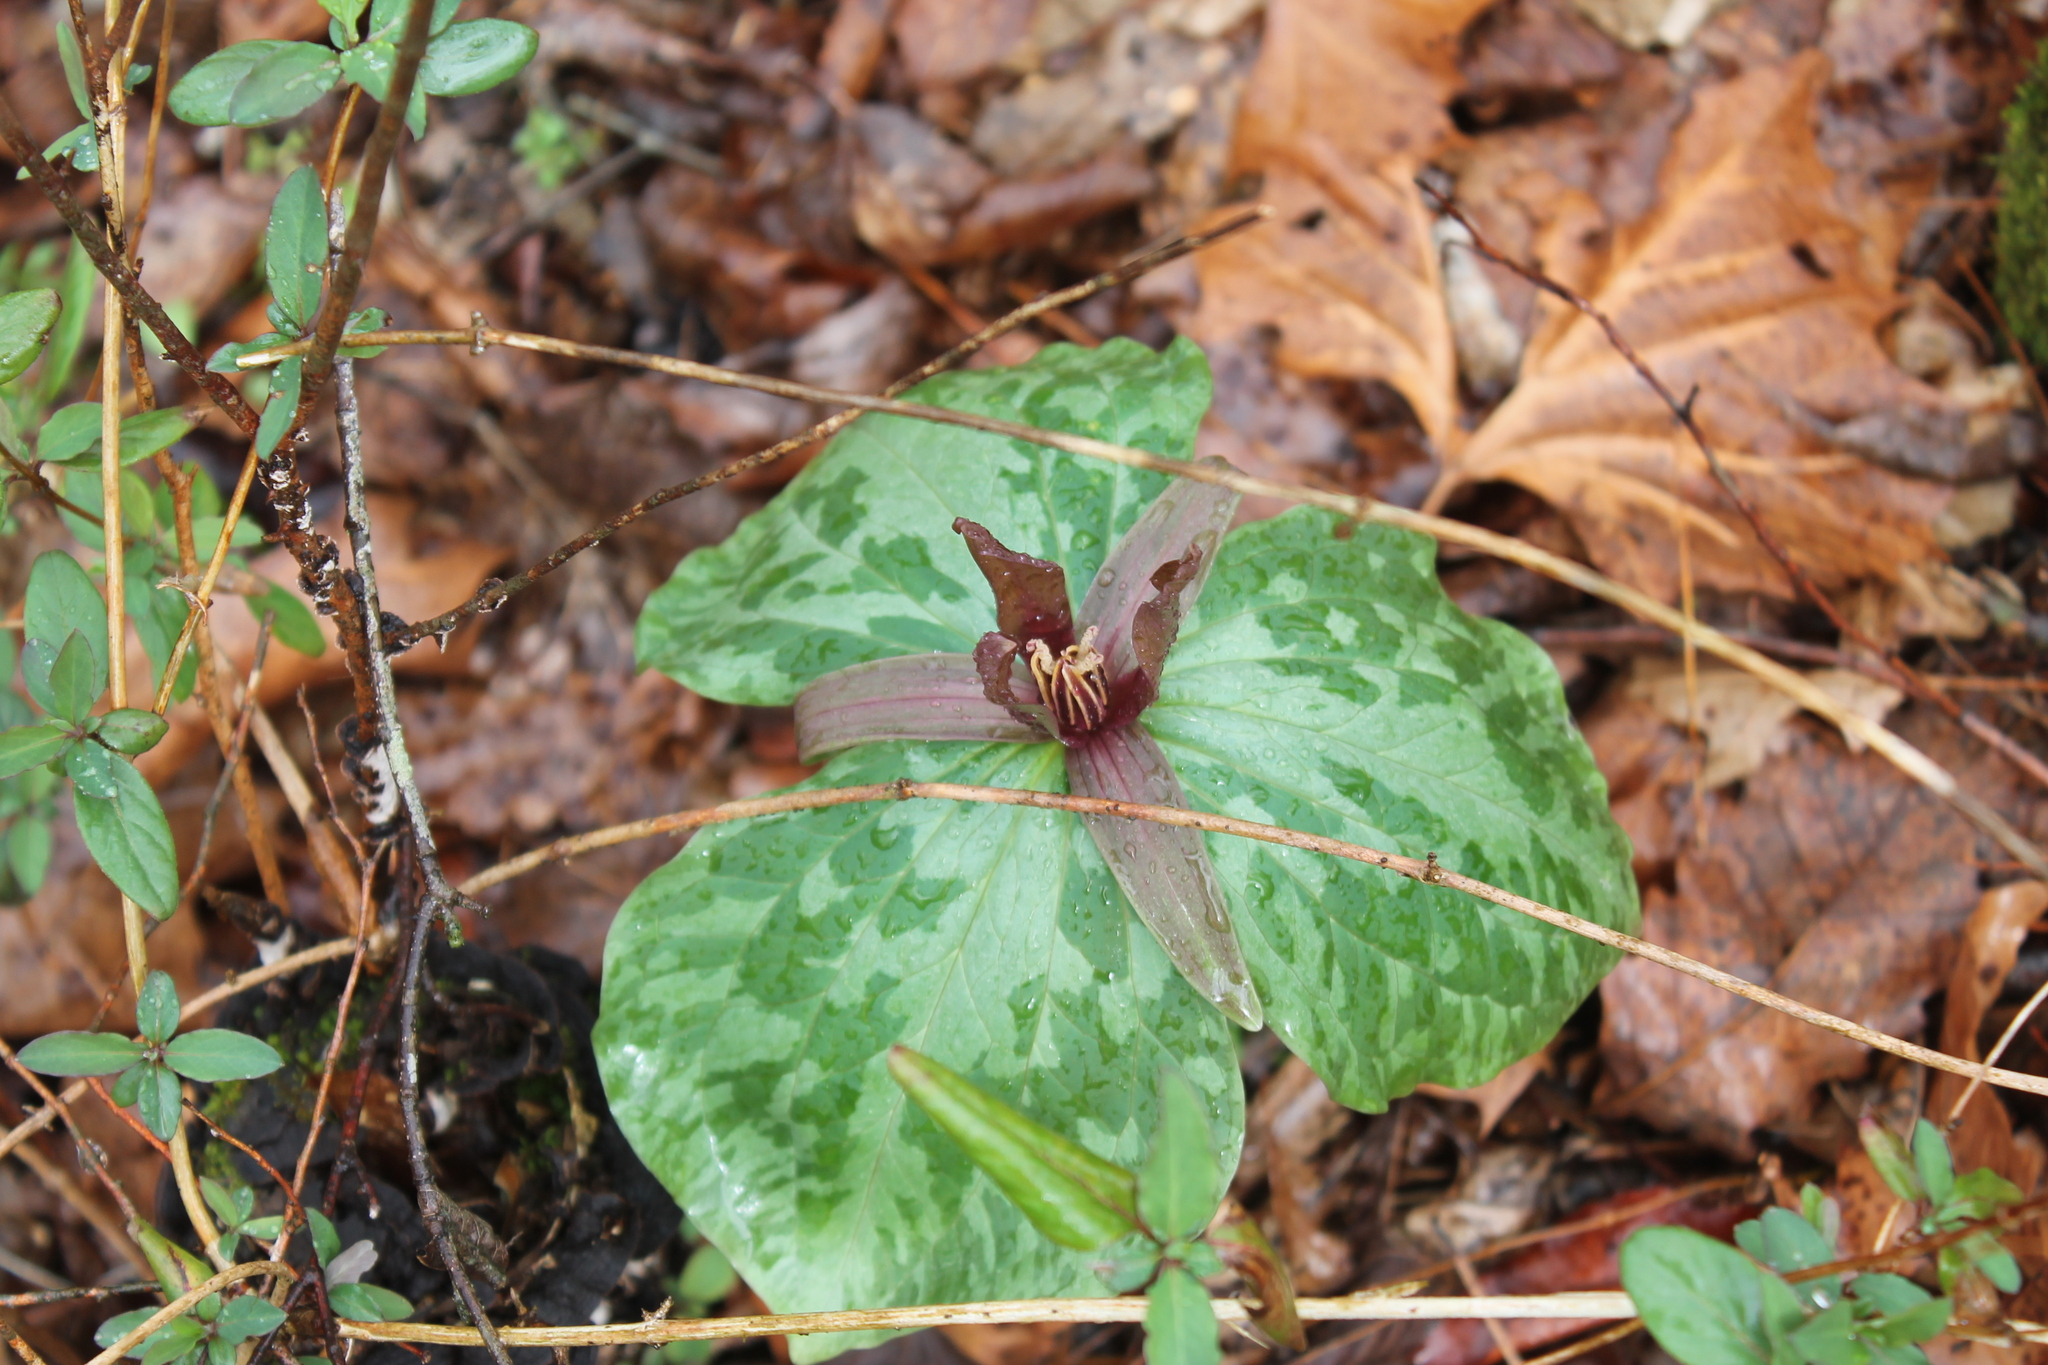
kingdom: Plantae
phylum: Tracheophyta
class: Liliopsida
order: Liliales
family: Melanthiaceae
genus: Trillium
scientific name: Trillium cuneatum
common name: Cuneate trillium
